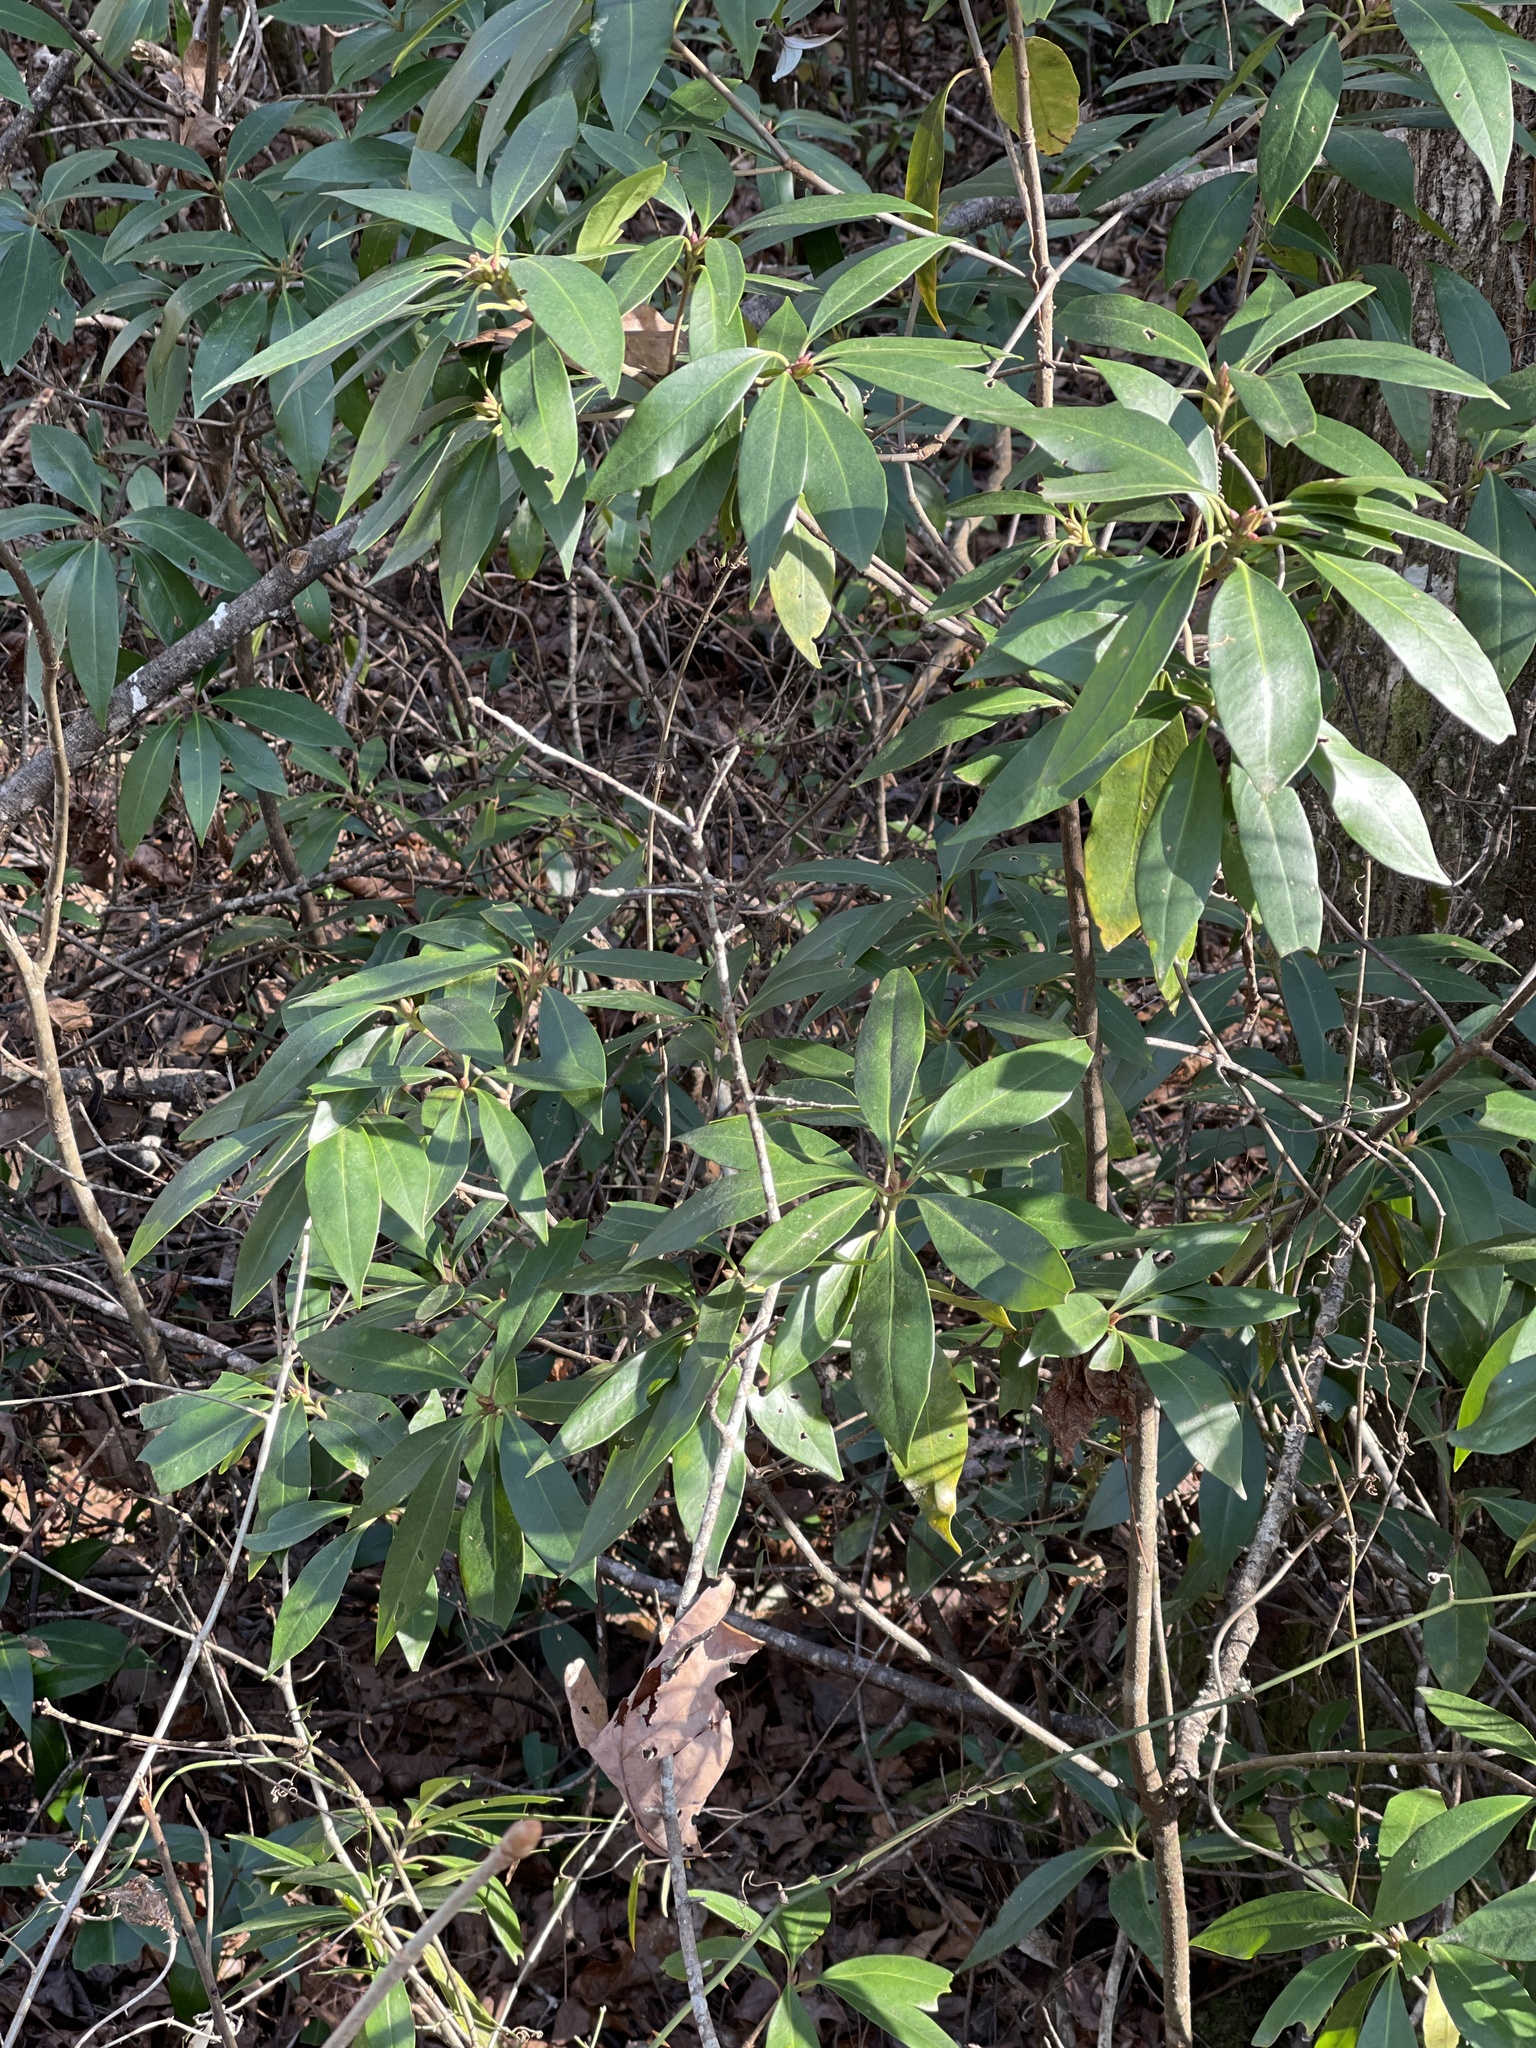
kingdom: Plantae
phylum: Tracheophyta
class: Magnoliopsida
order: Austrobaileyales
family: Schisandraceae
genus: Illicium
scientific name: Illicium floridanum
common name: Florida anisetree
